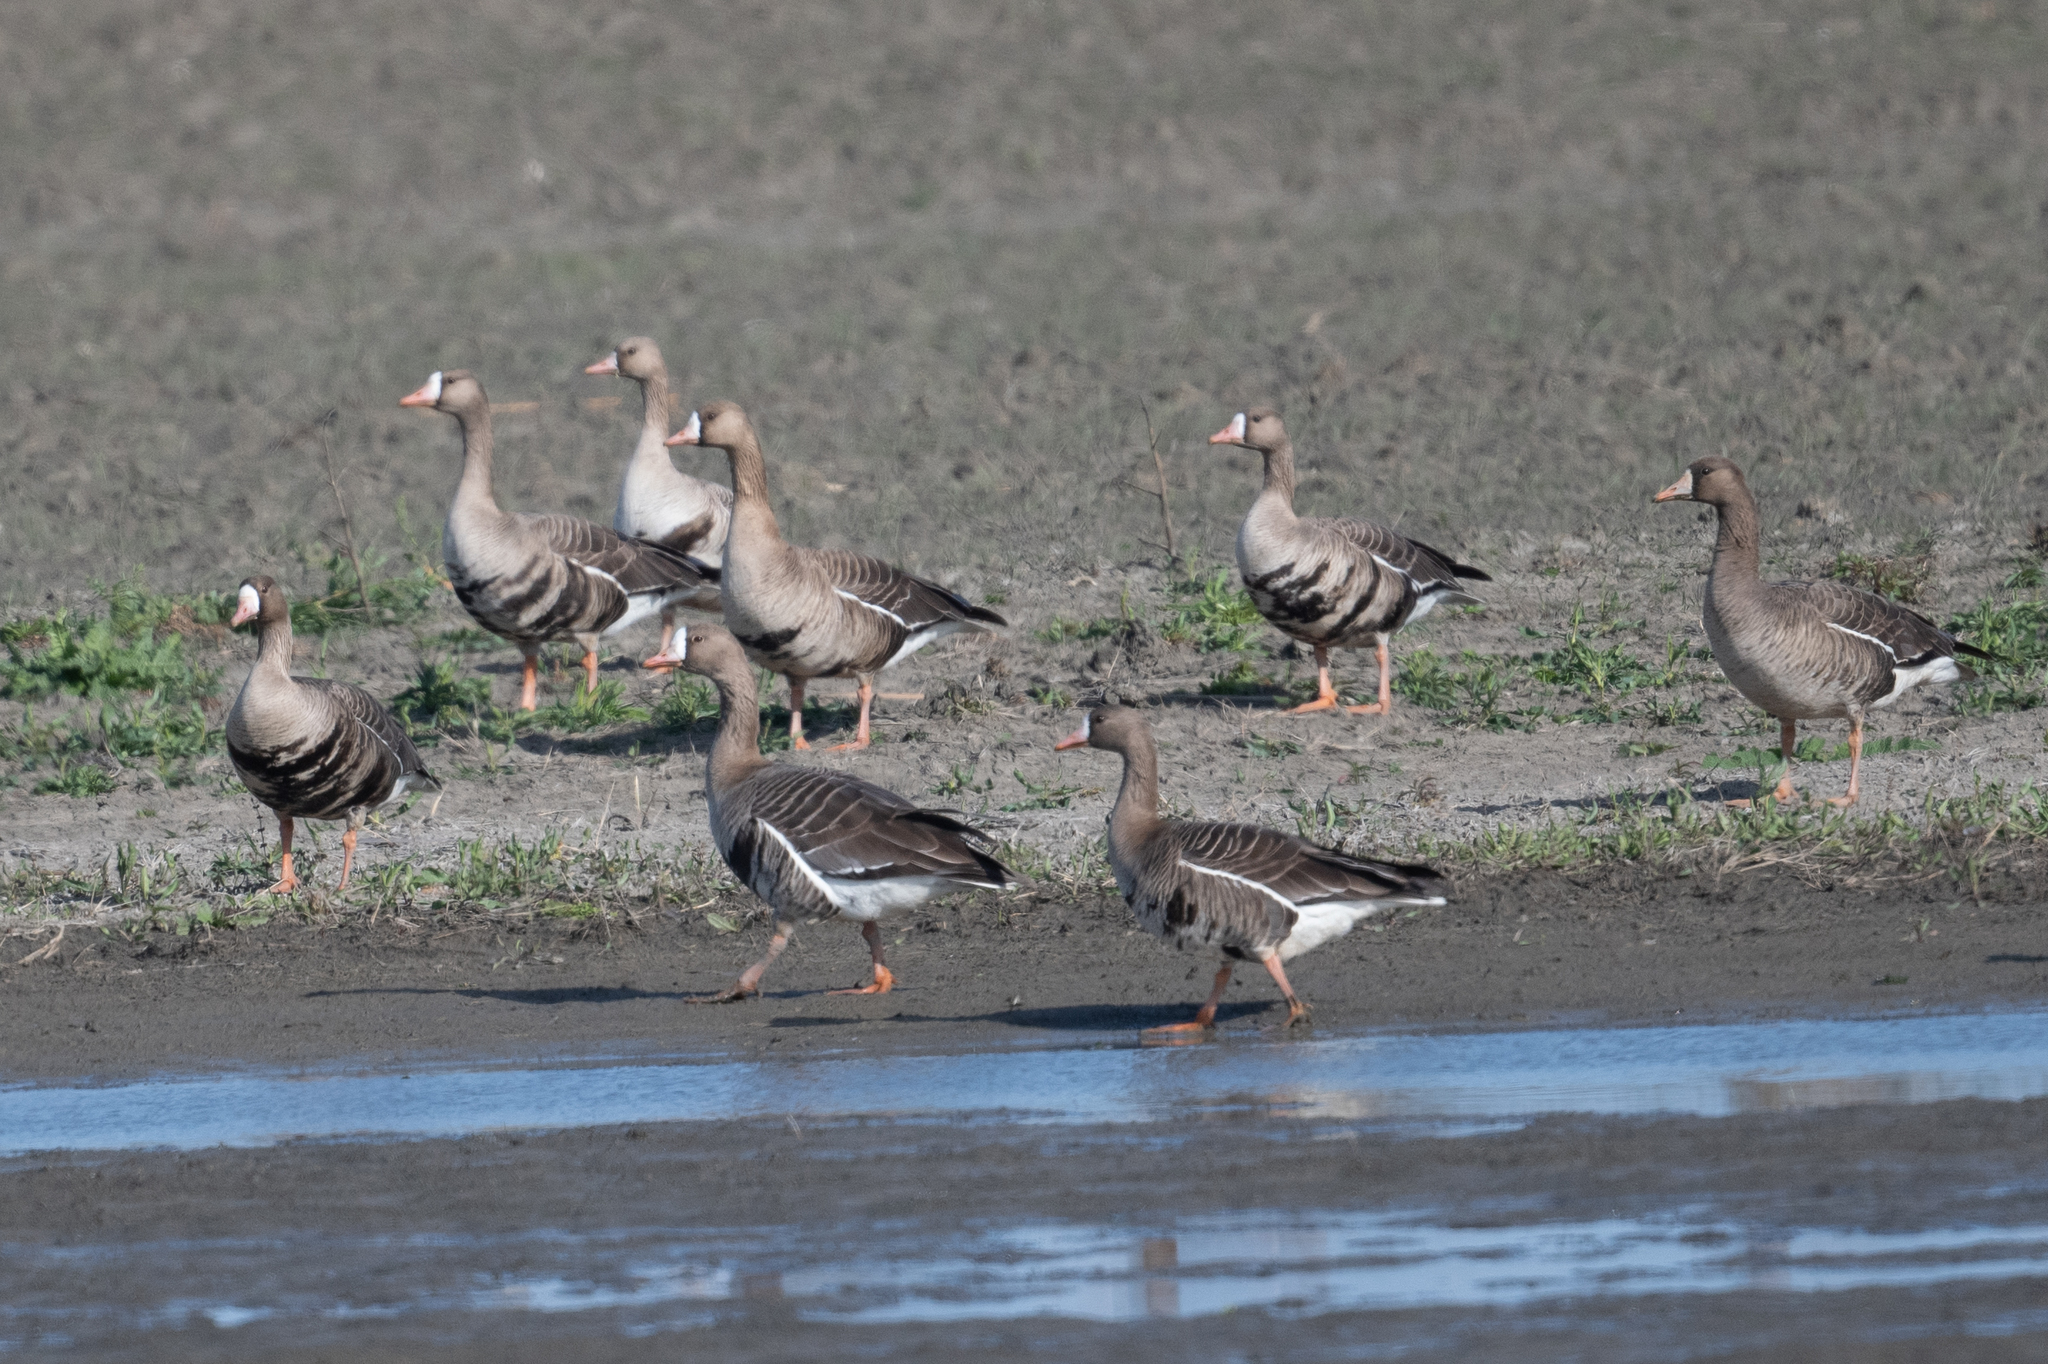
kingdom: Animalia
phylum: Chordata
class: Aves
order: Anseriformes
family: Anatidae
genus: Anser
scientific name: Anser albifrons
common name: Greater white-fronted goose
